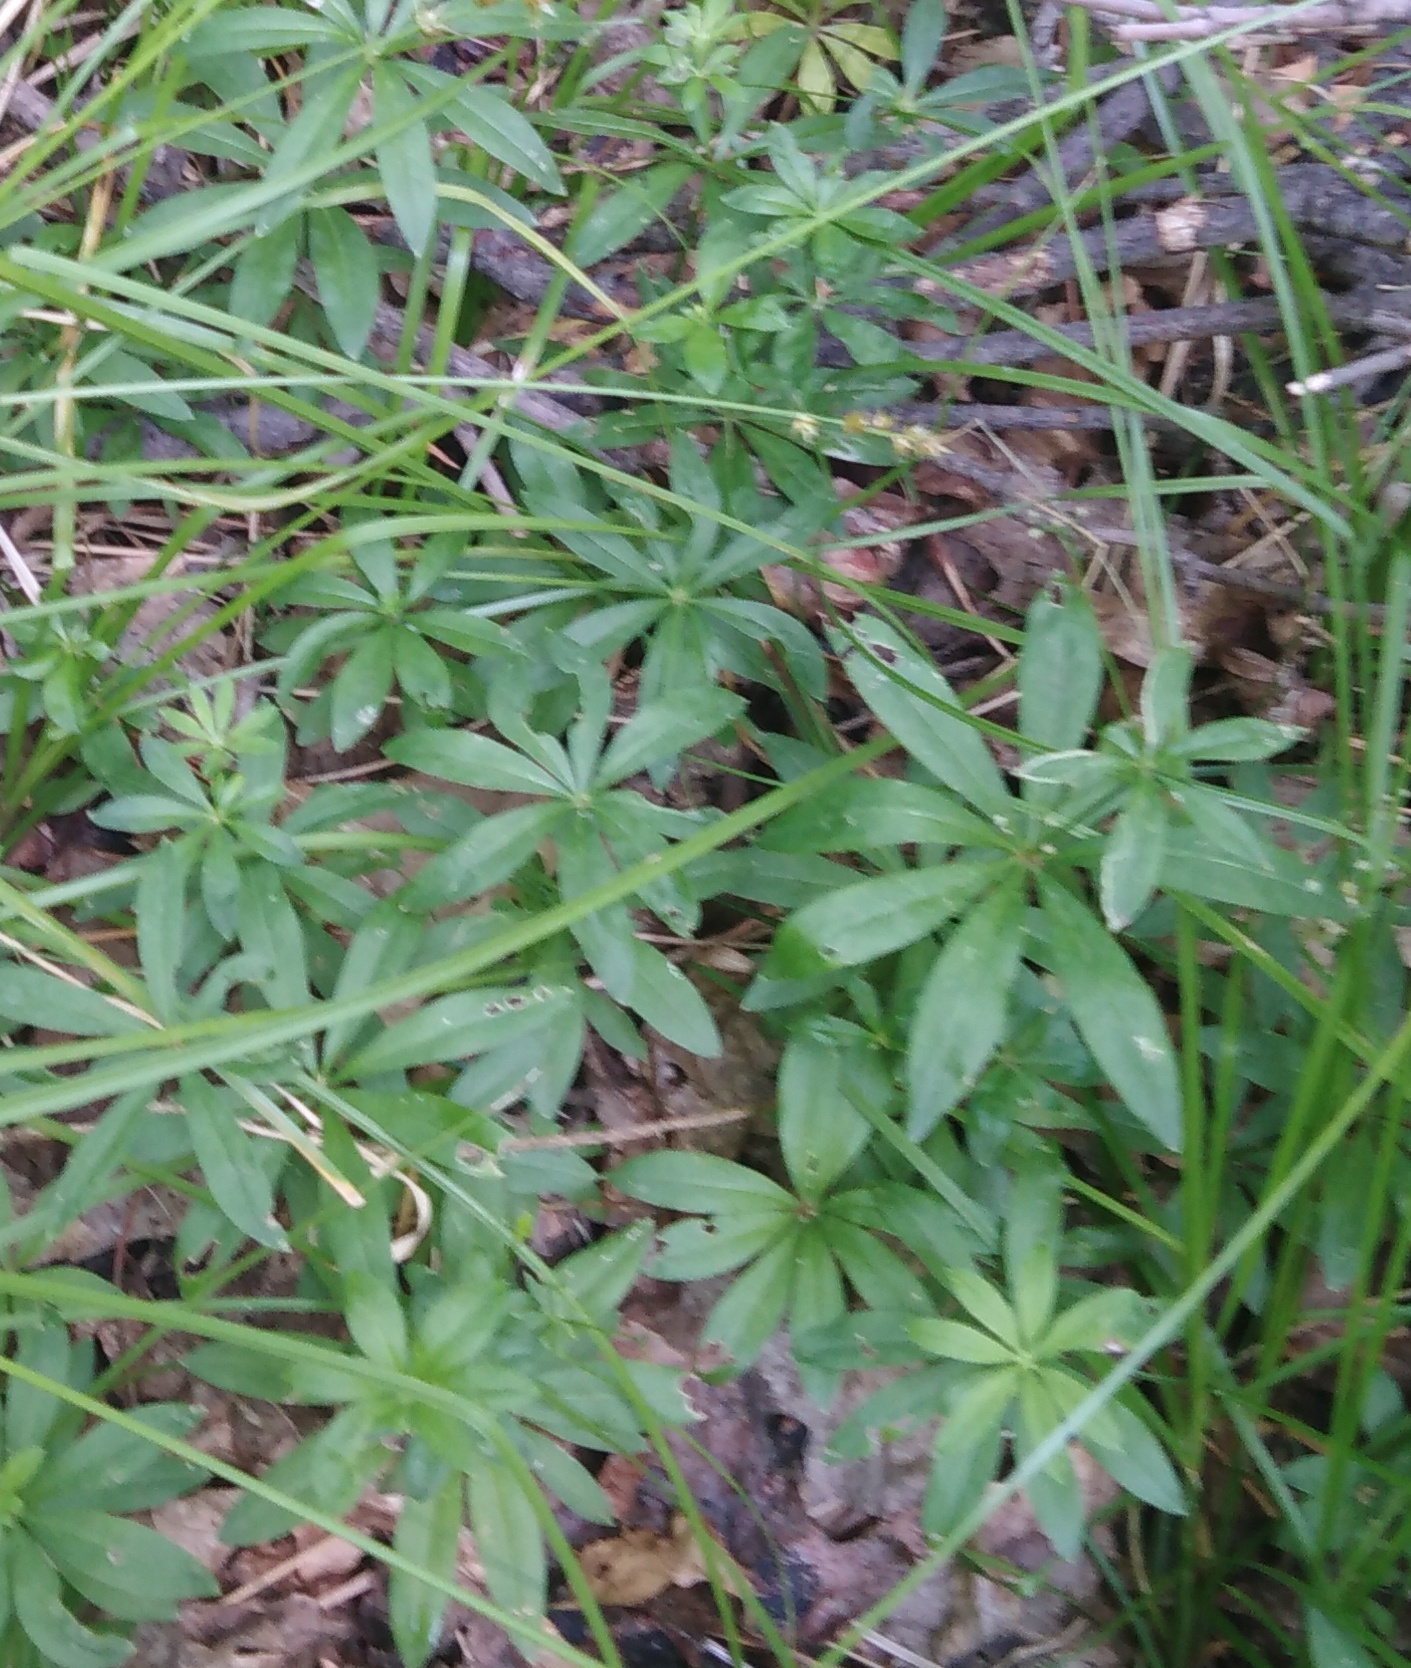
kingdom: Plantae
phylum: Tracheophyta
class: Magnoliopsida
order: Gentianales
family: Rubiaceae
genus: Galium
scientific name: Galium odoratum
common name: Sweet woodruff
